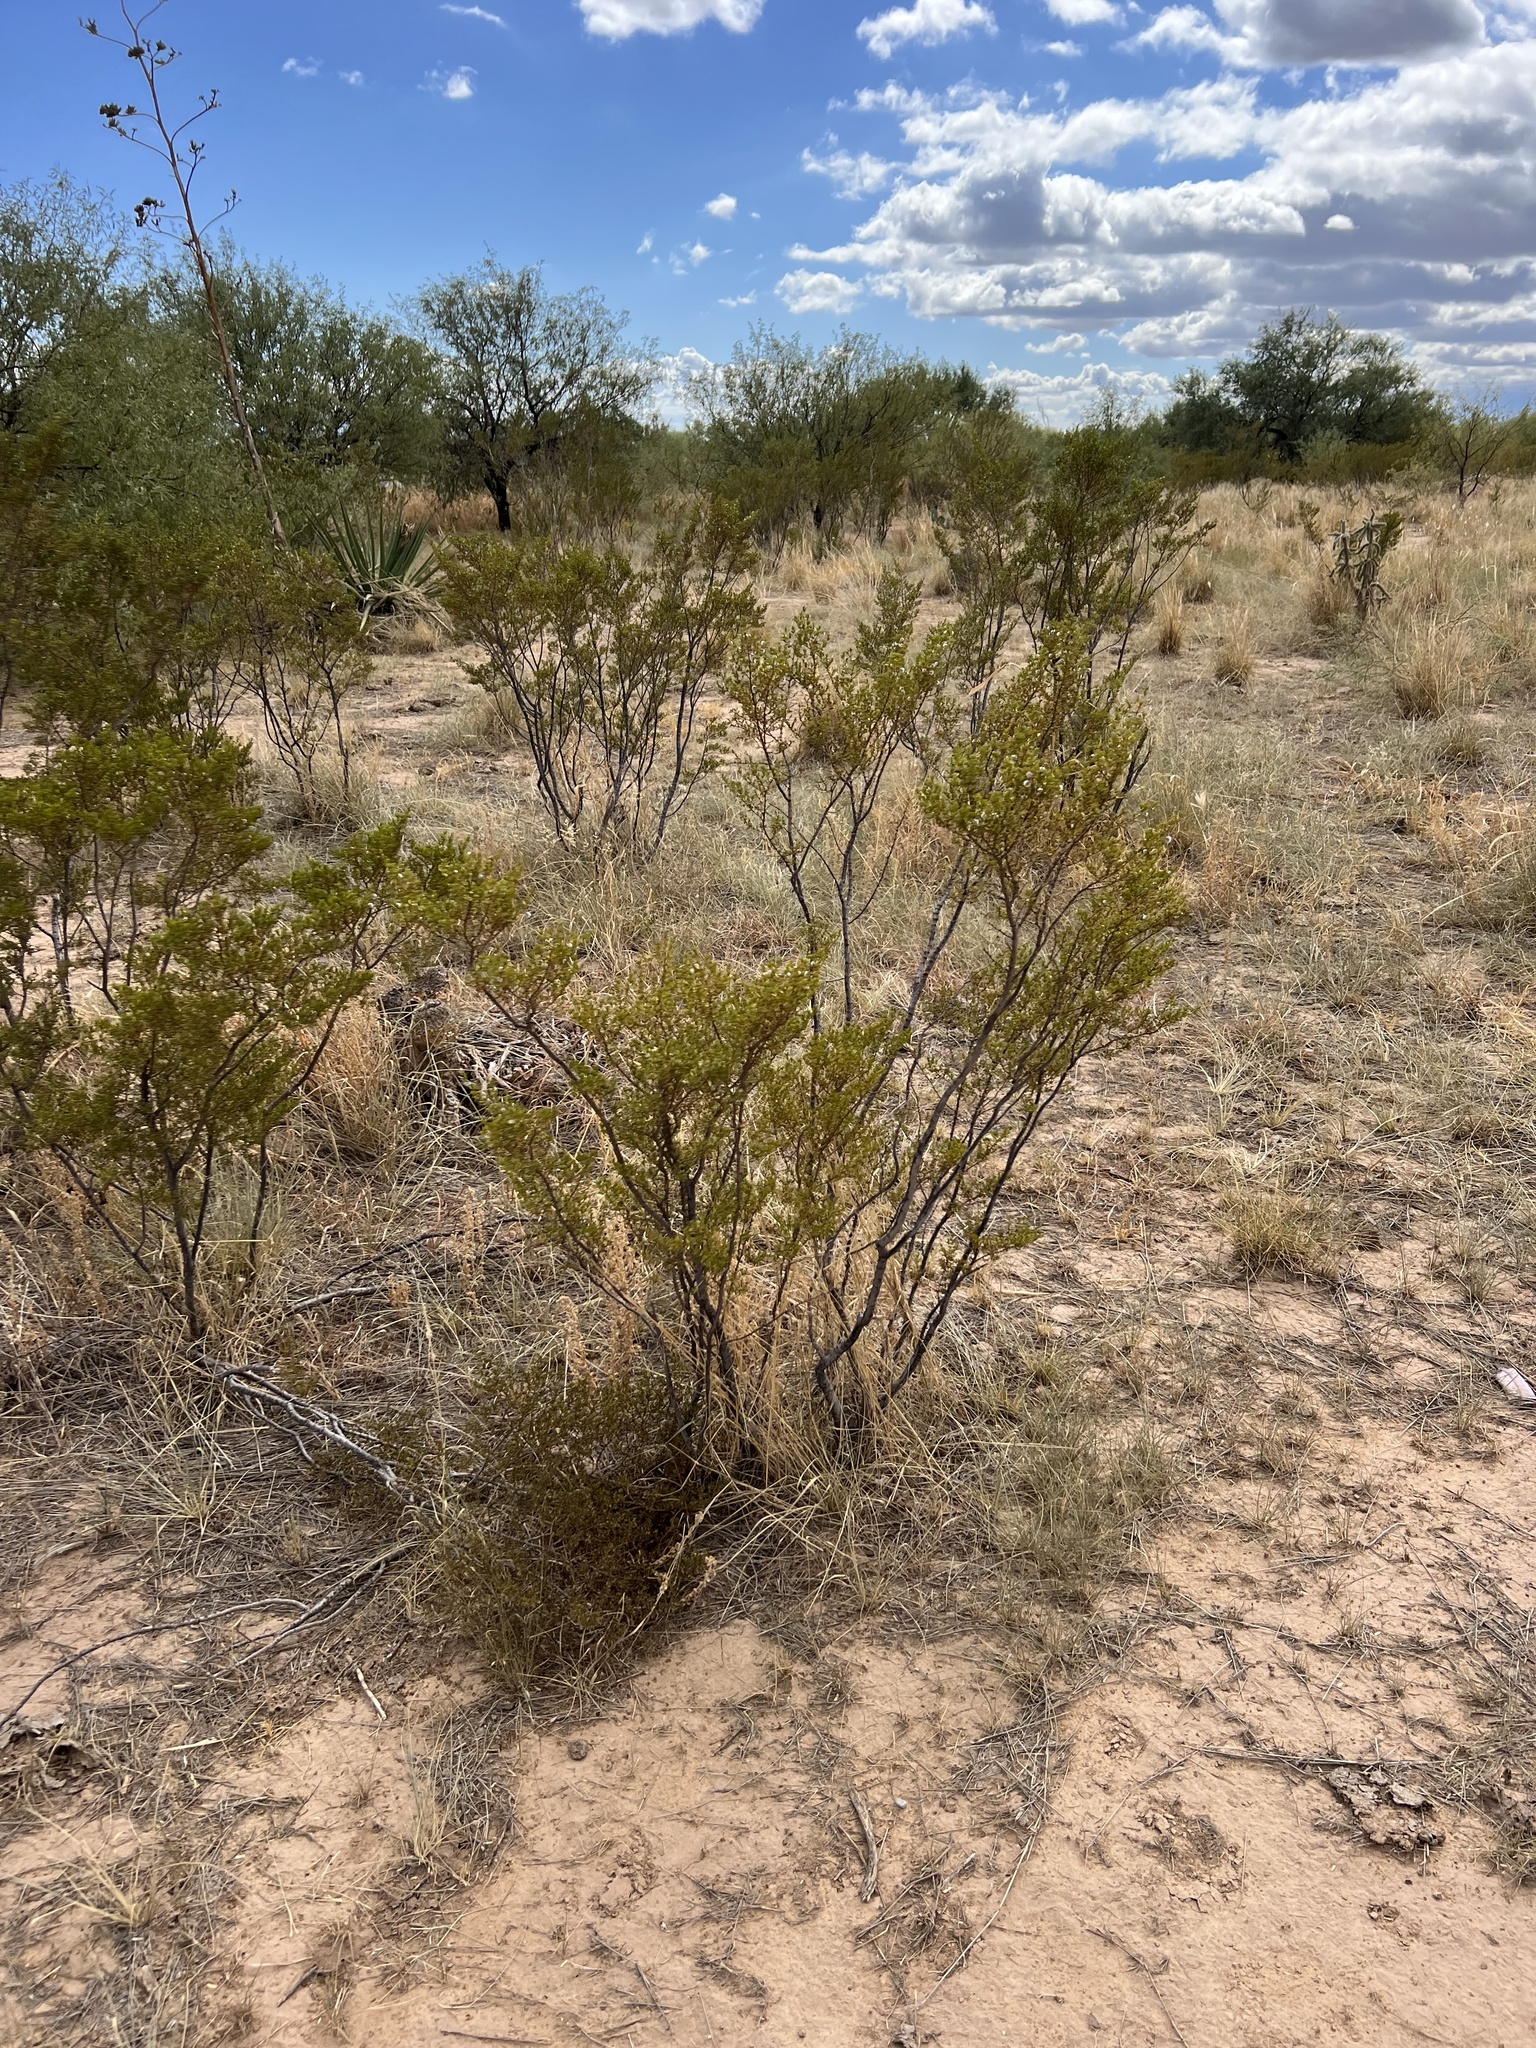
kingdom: Plantae
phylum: Tracheophyta
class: Magnoliopsida
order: Zygophyllales
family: Zygophyllaceae
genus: Larrea
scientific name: Larrea tridentata
